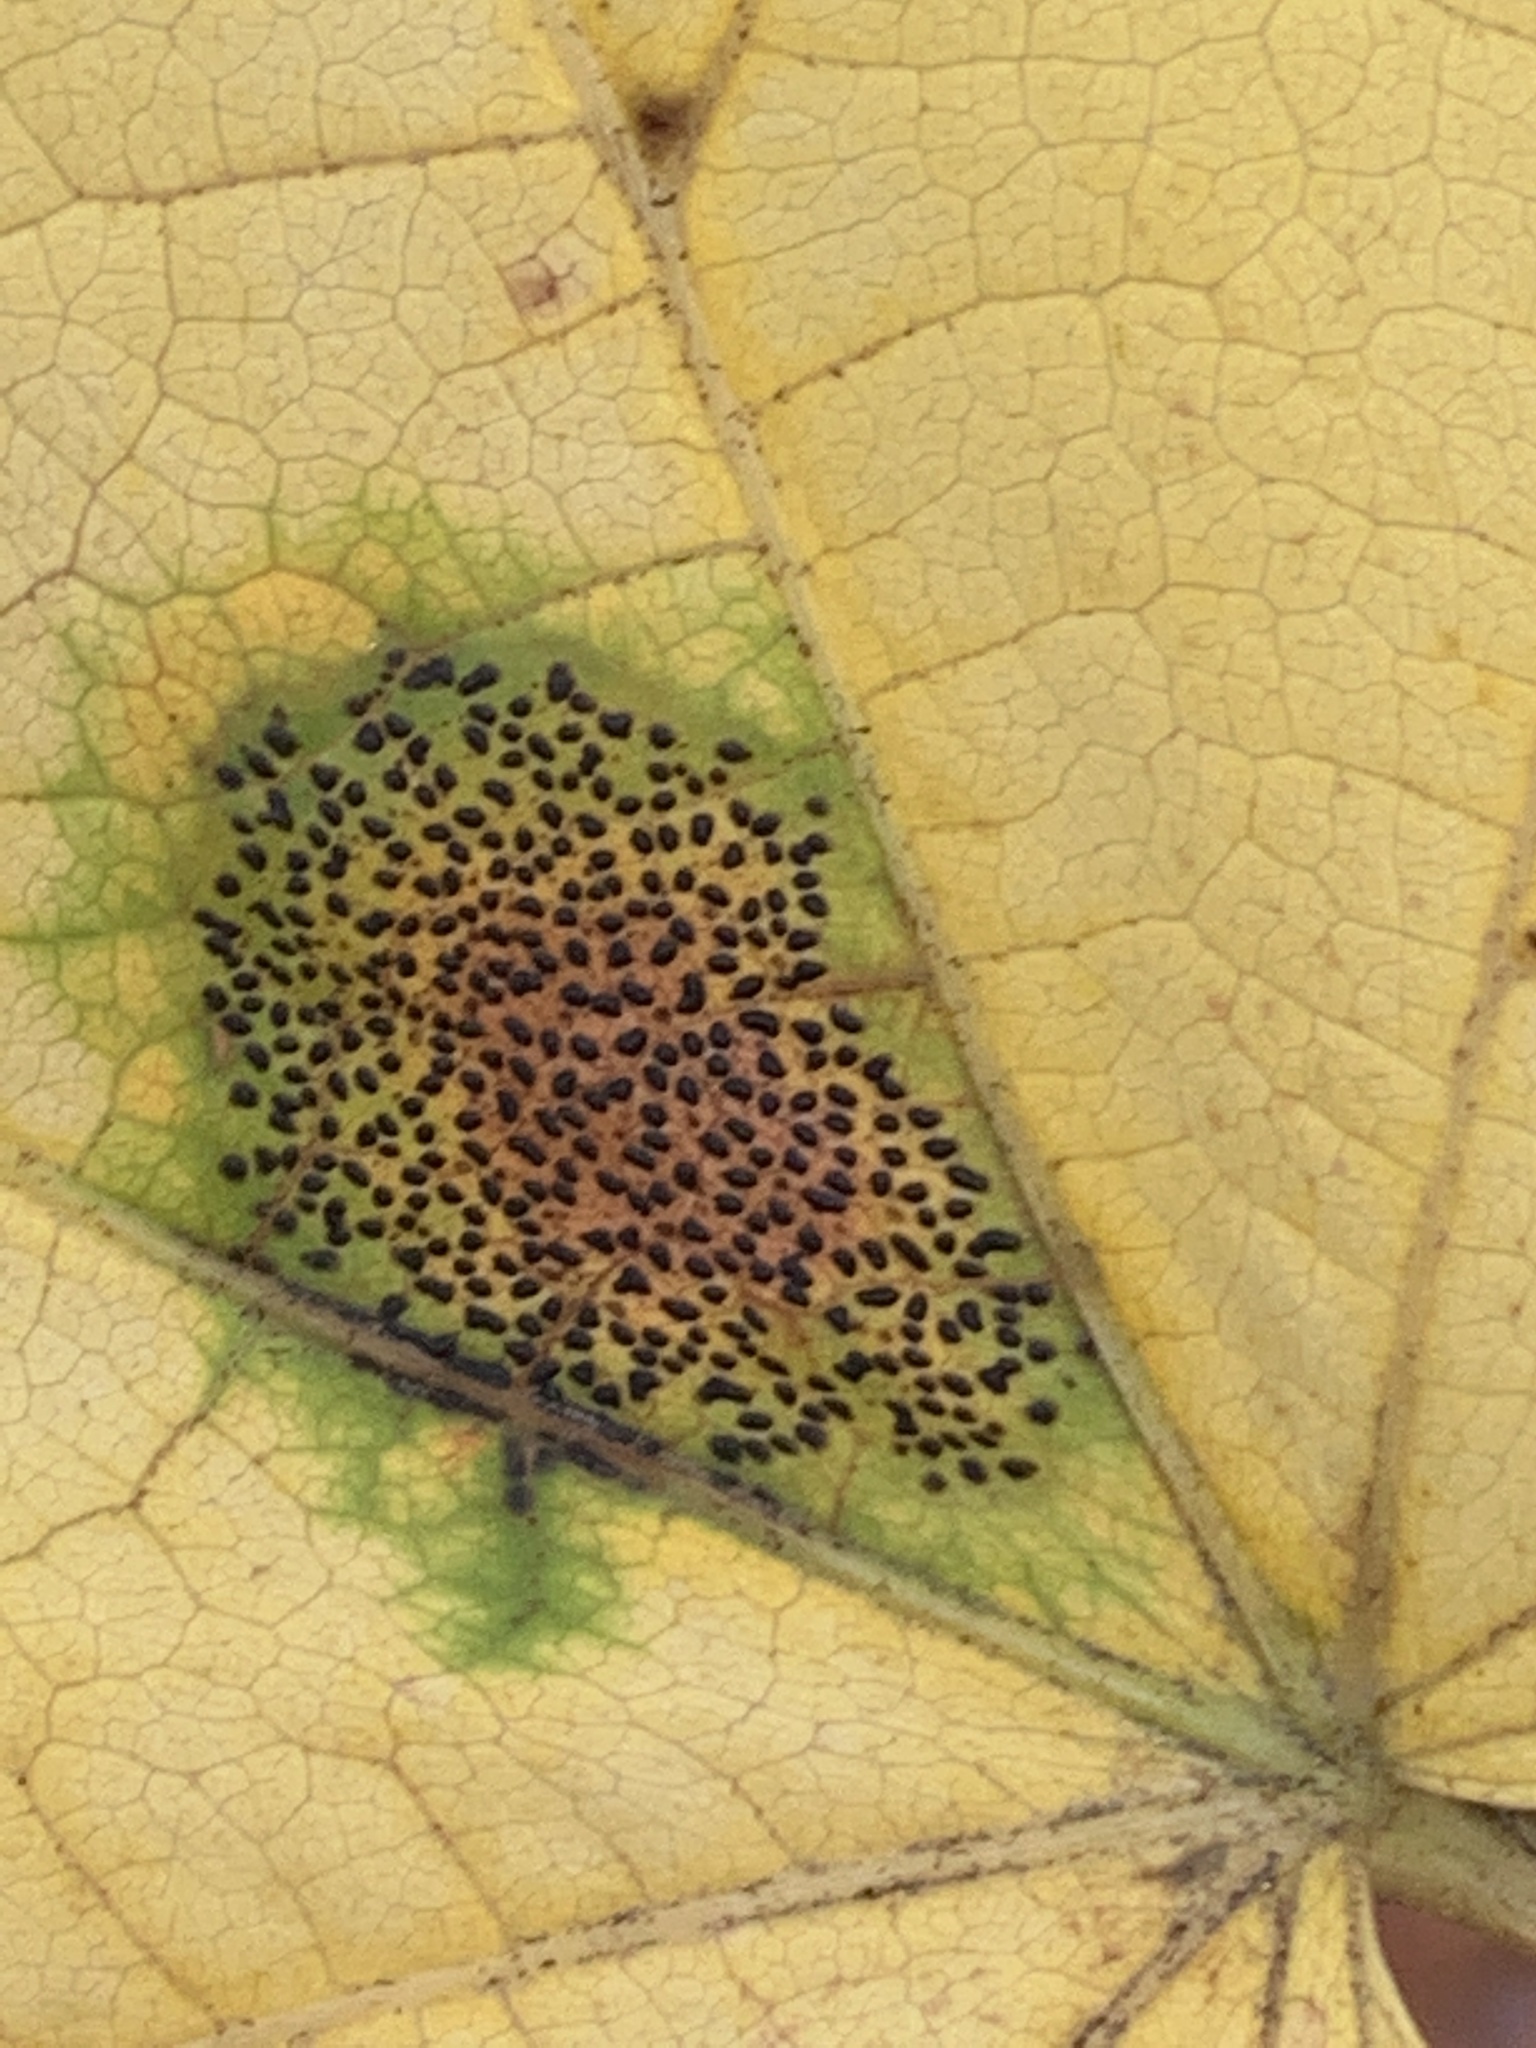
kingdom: Fungi
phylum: Ascomycota
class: Leotiomycetes
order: Rhytismatales
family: Rhytismataceae
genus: Rhytisma
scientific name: Rhytisma punctatum
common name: Speckled tar spot
